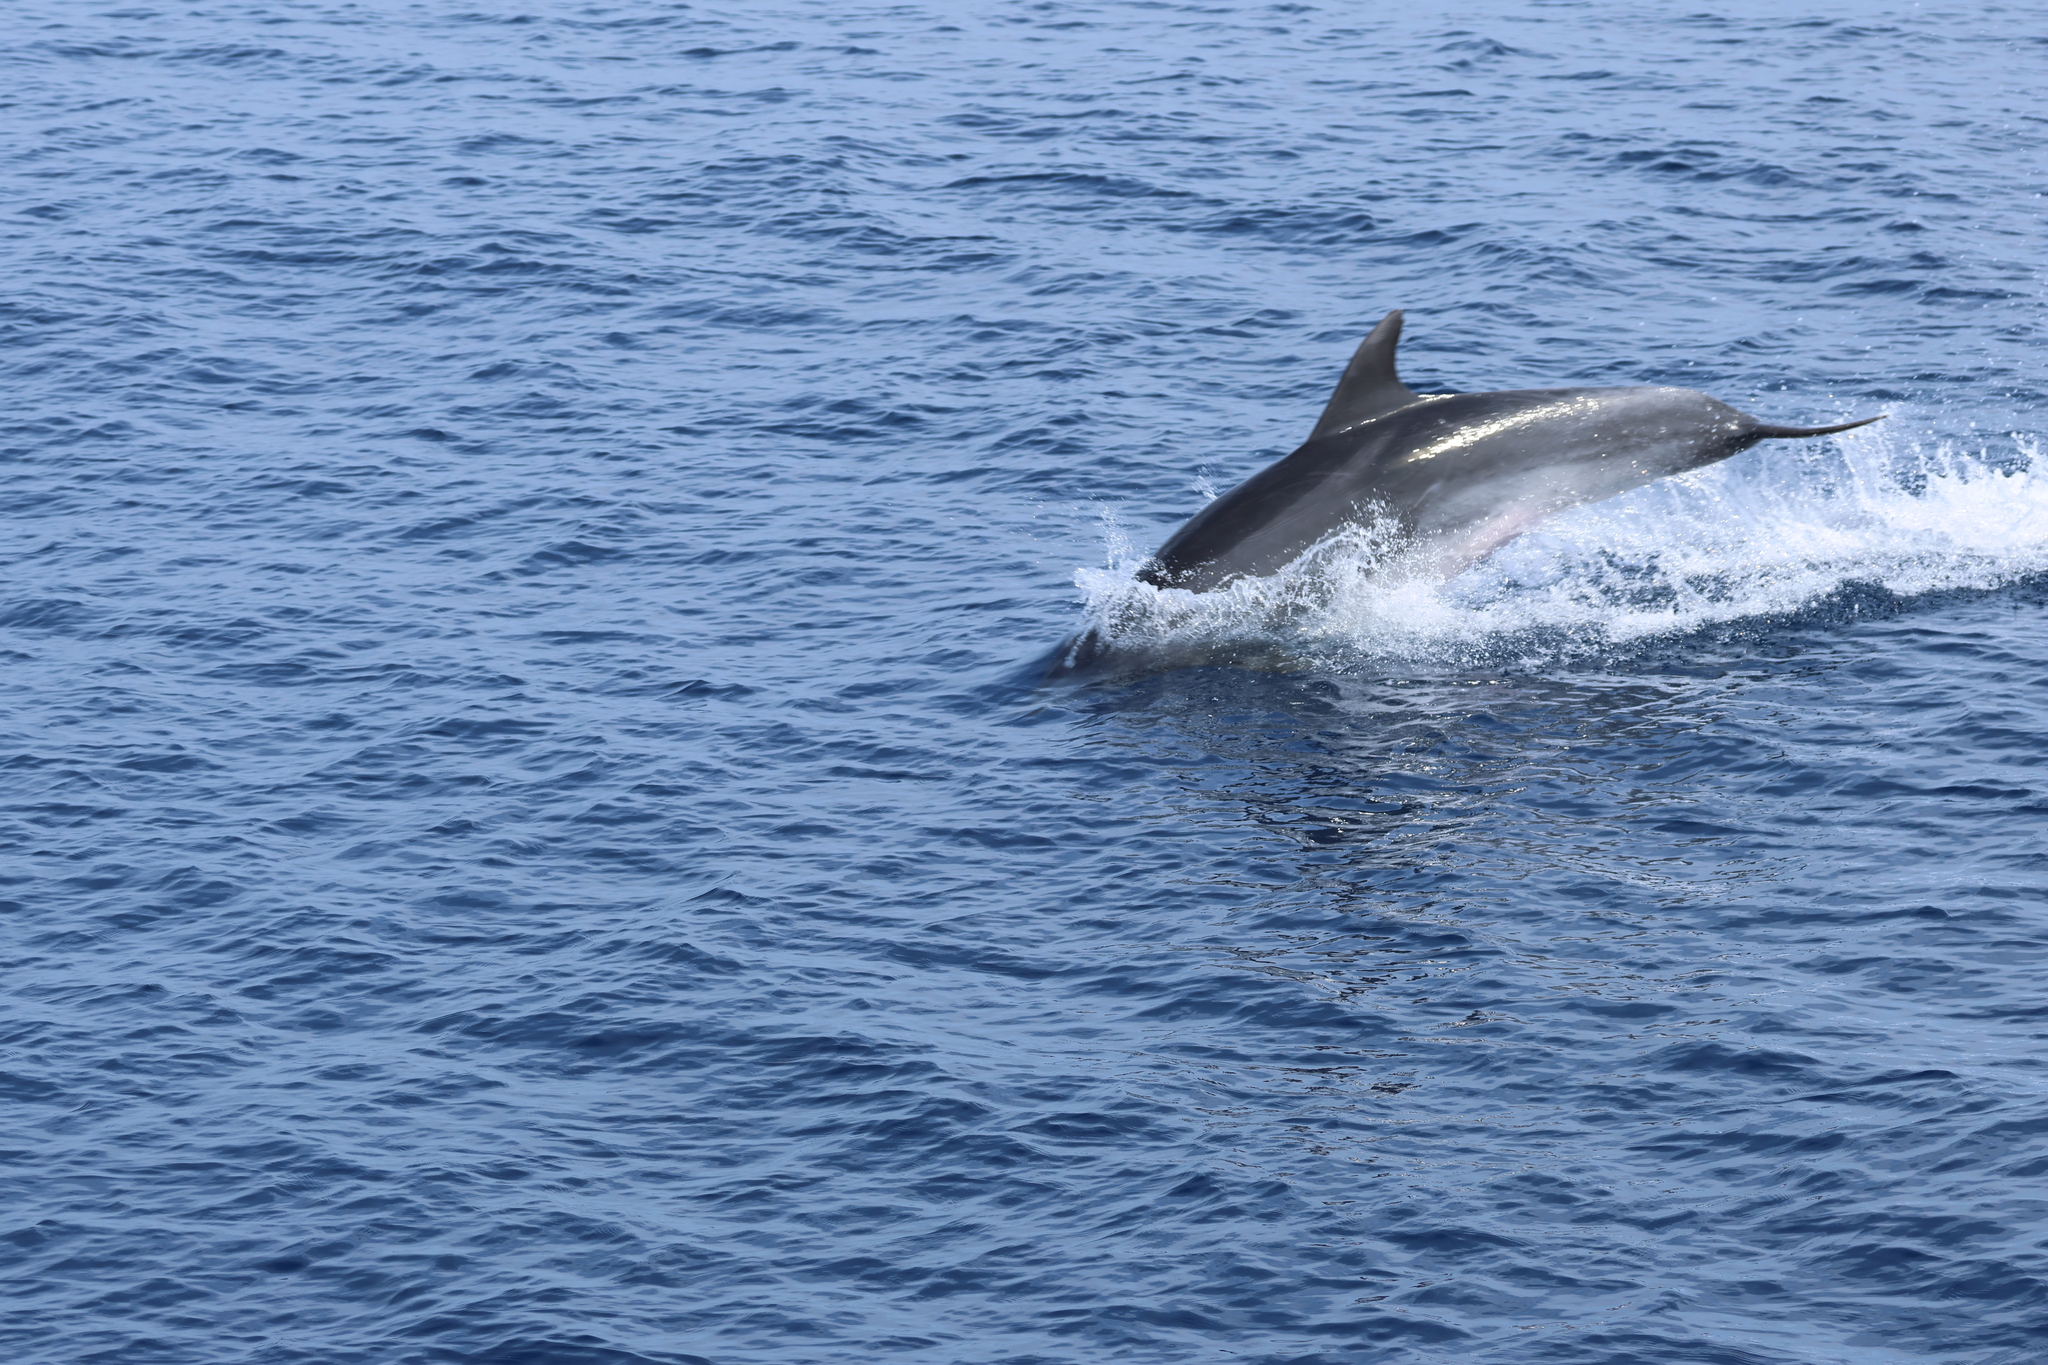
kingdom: Animalia
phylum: Chordata
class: Mammalia
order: Cetacea
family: Delphinidae
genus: Tursiops
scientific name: Tursiops truncatus
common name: Bottlenose dolphin
